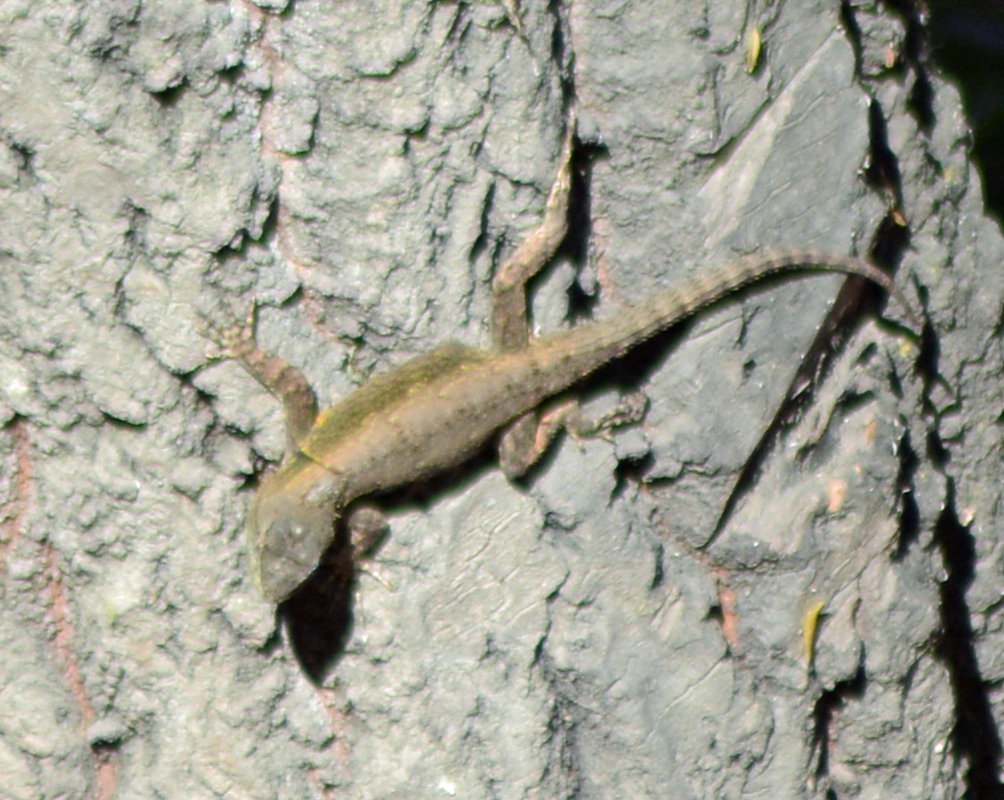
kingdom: Animalia
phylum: Chordata
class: Squamata
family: Phrynosomatidae
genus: Sceloporus
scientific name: Sceloporus grammicus
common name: Mesquite lizard
